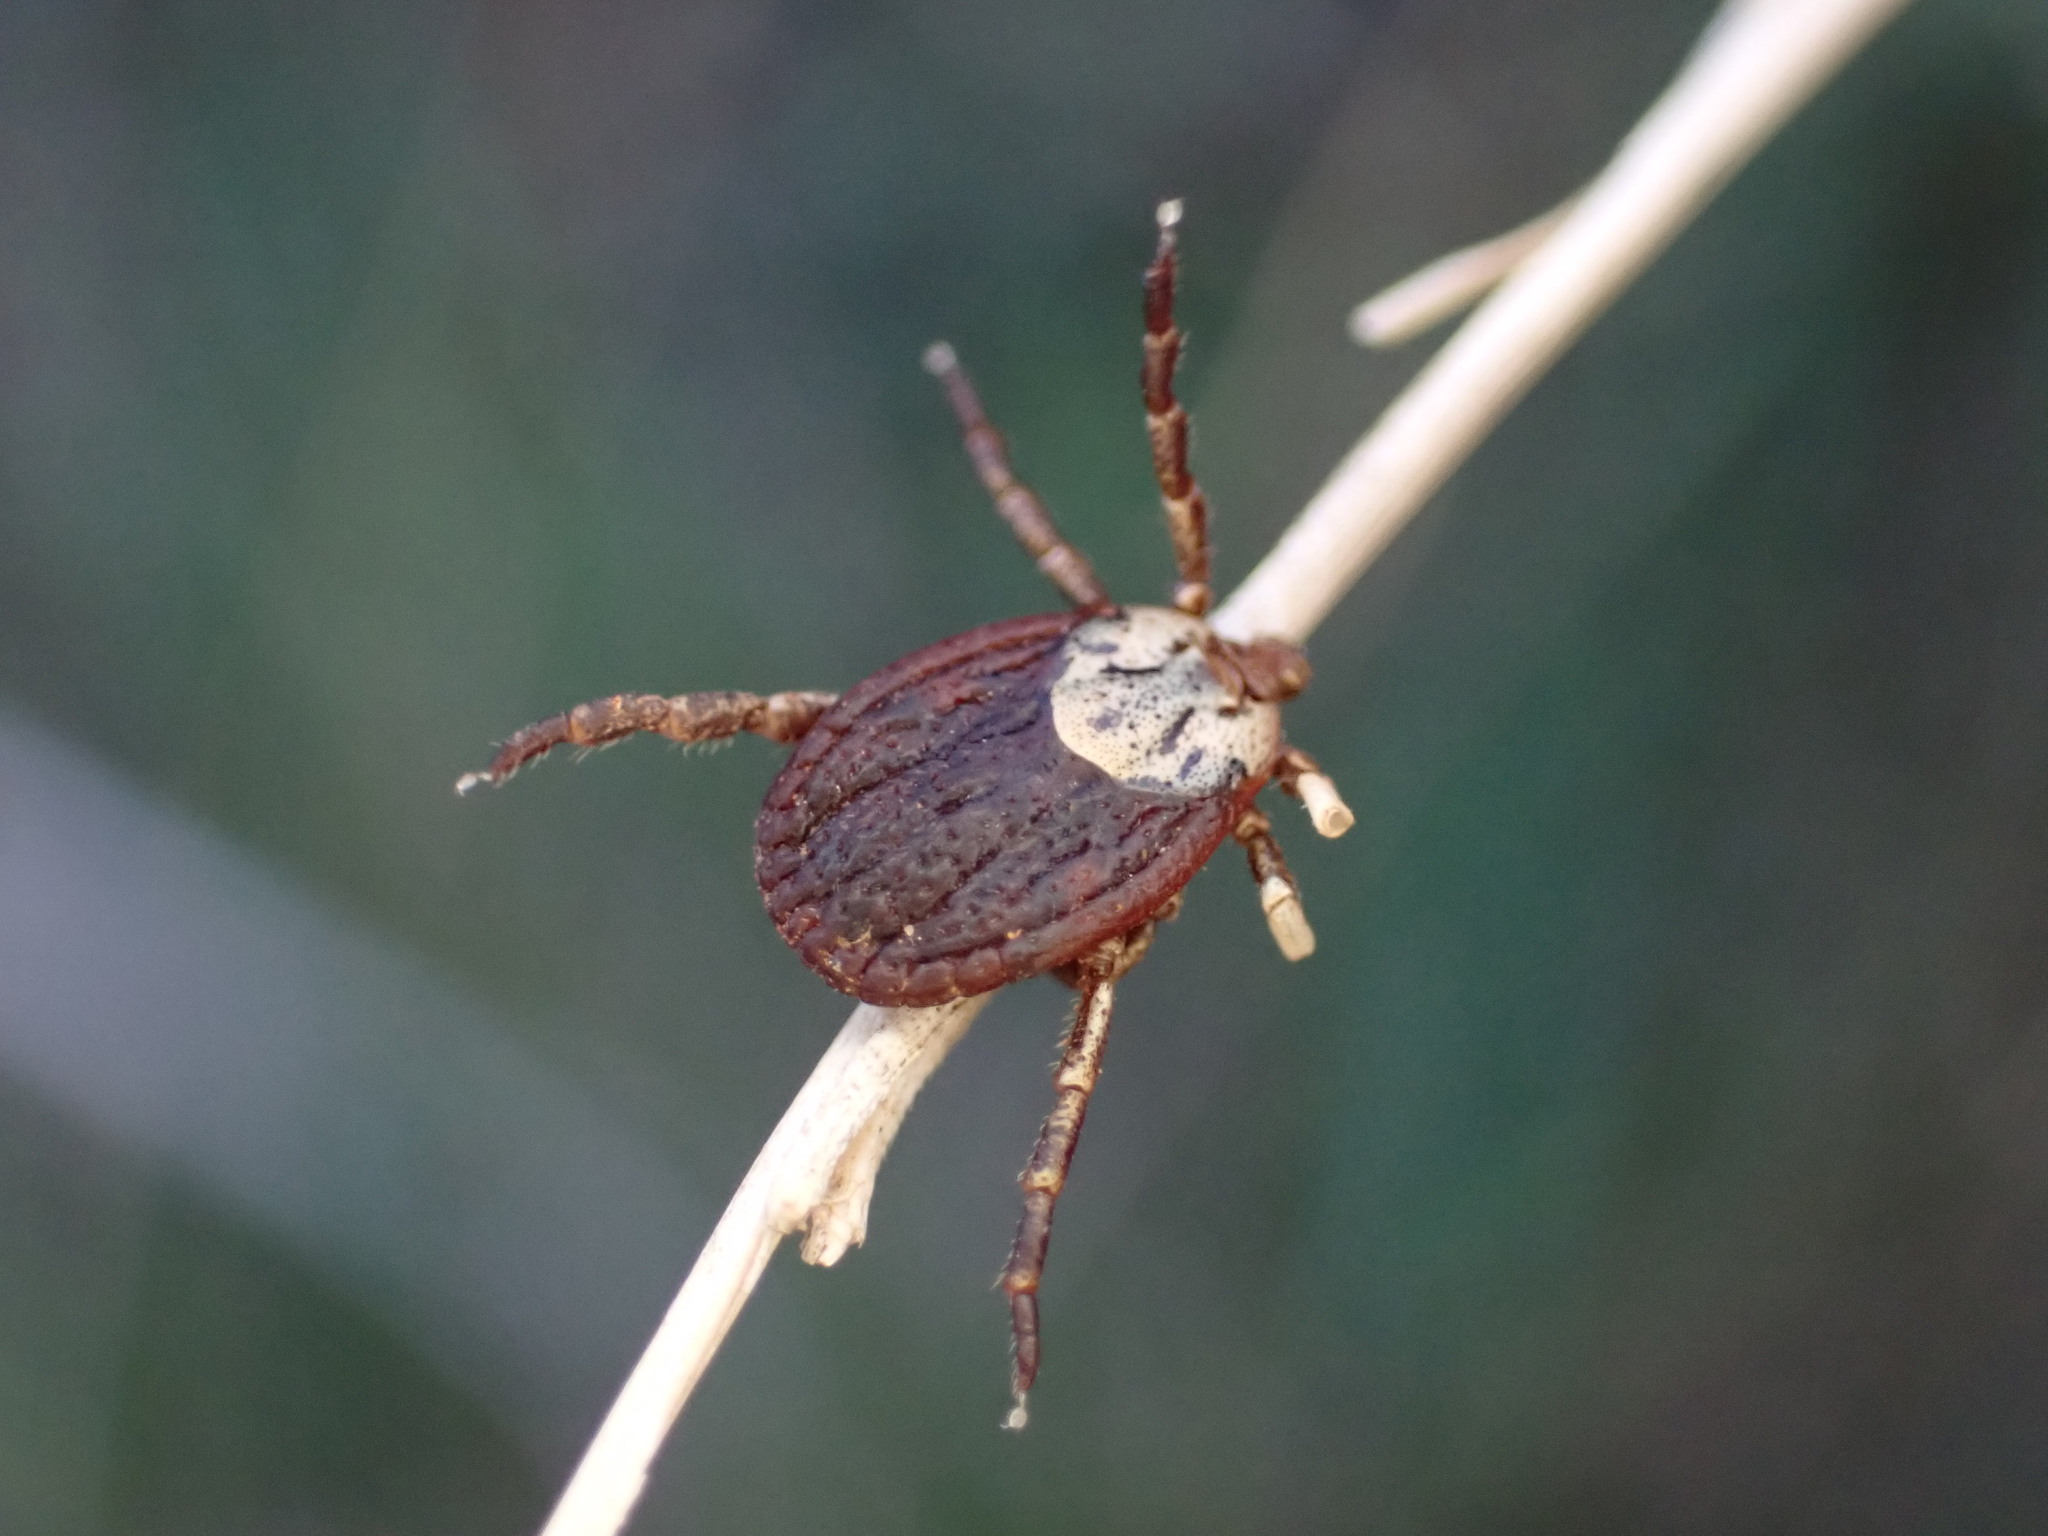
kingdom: Animalia
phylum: Arthropoda
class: Arachnida
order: Ixodida
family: Ixodidae
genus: Dermacentor
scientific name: Dermacentor marginatus
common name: Ornate sheep tick
